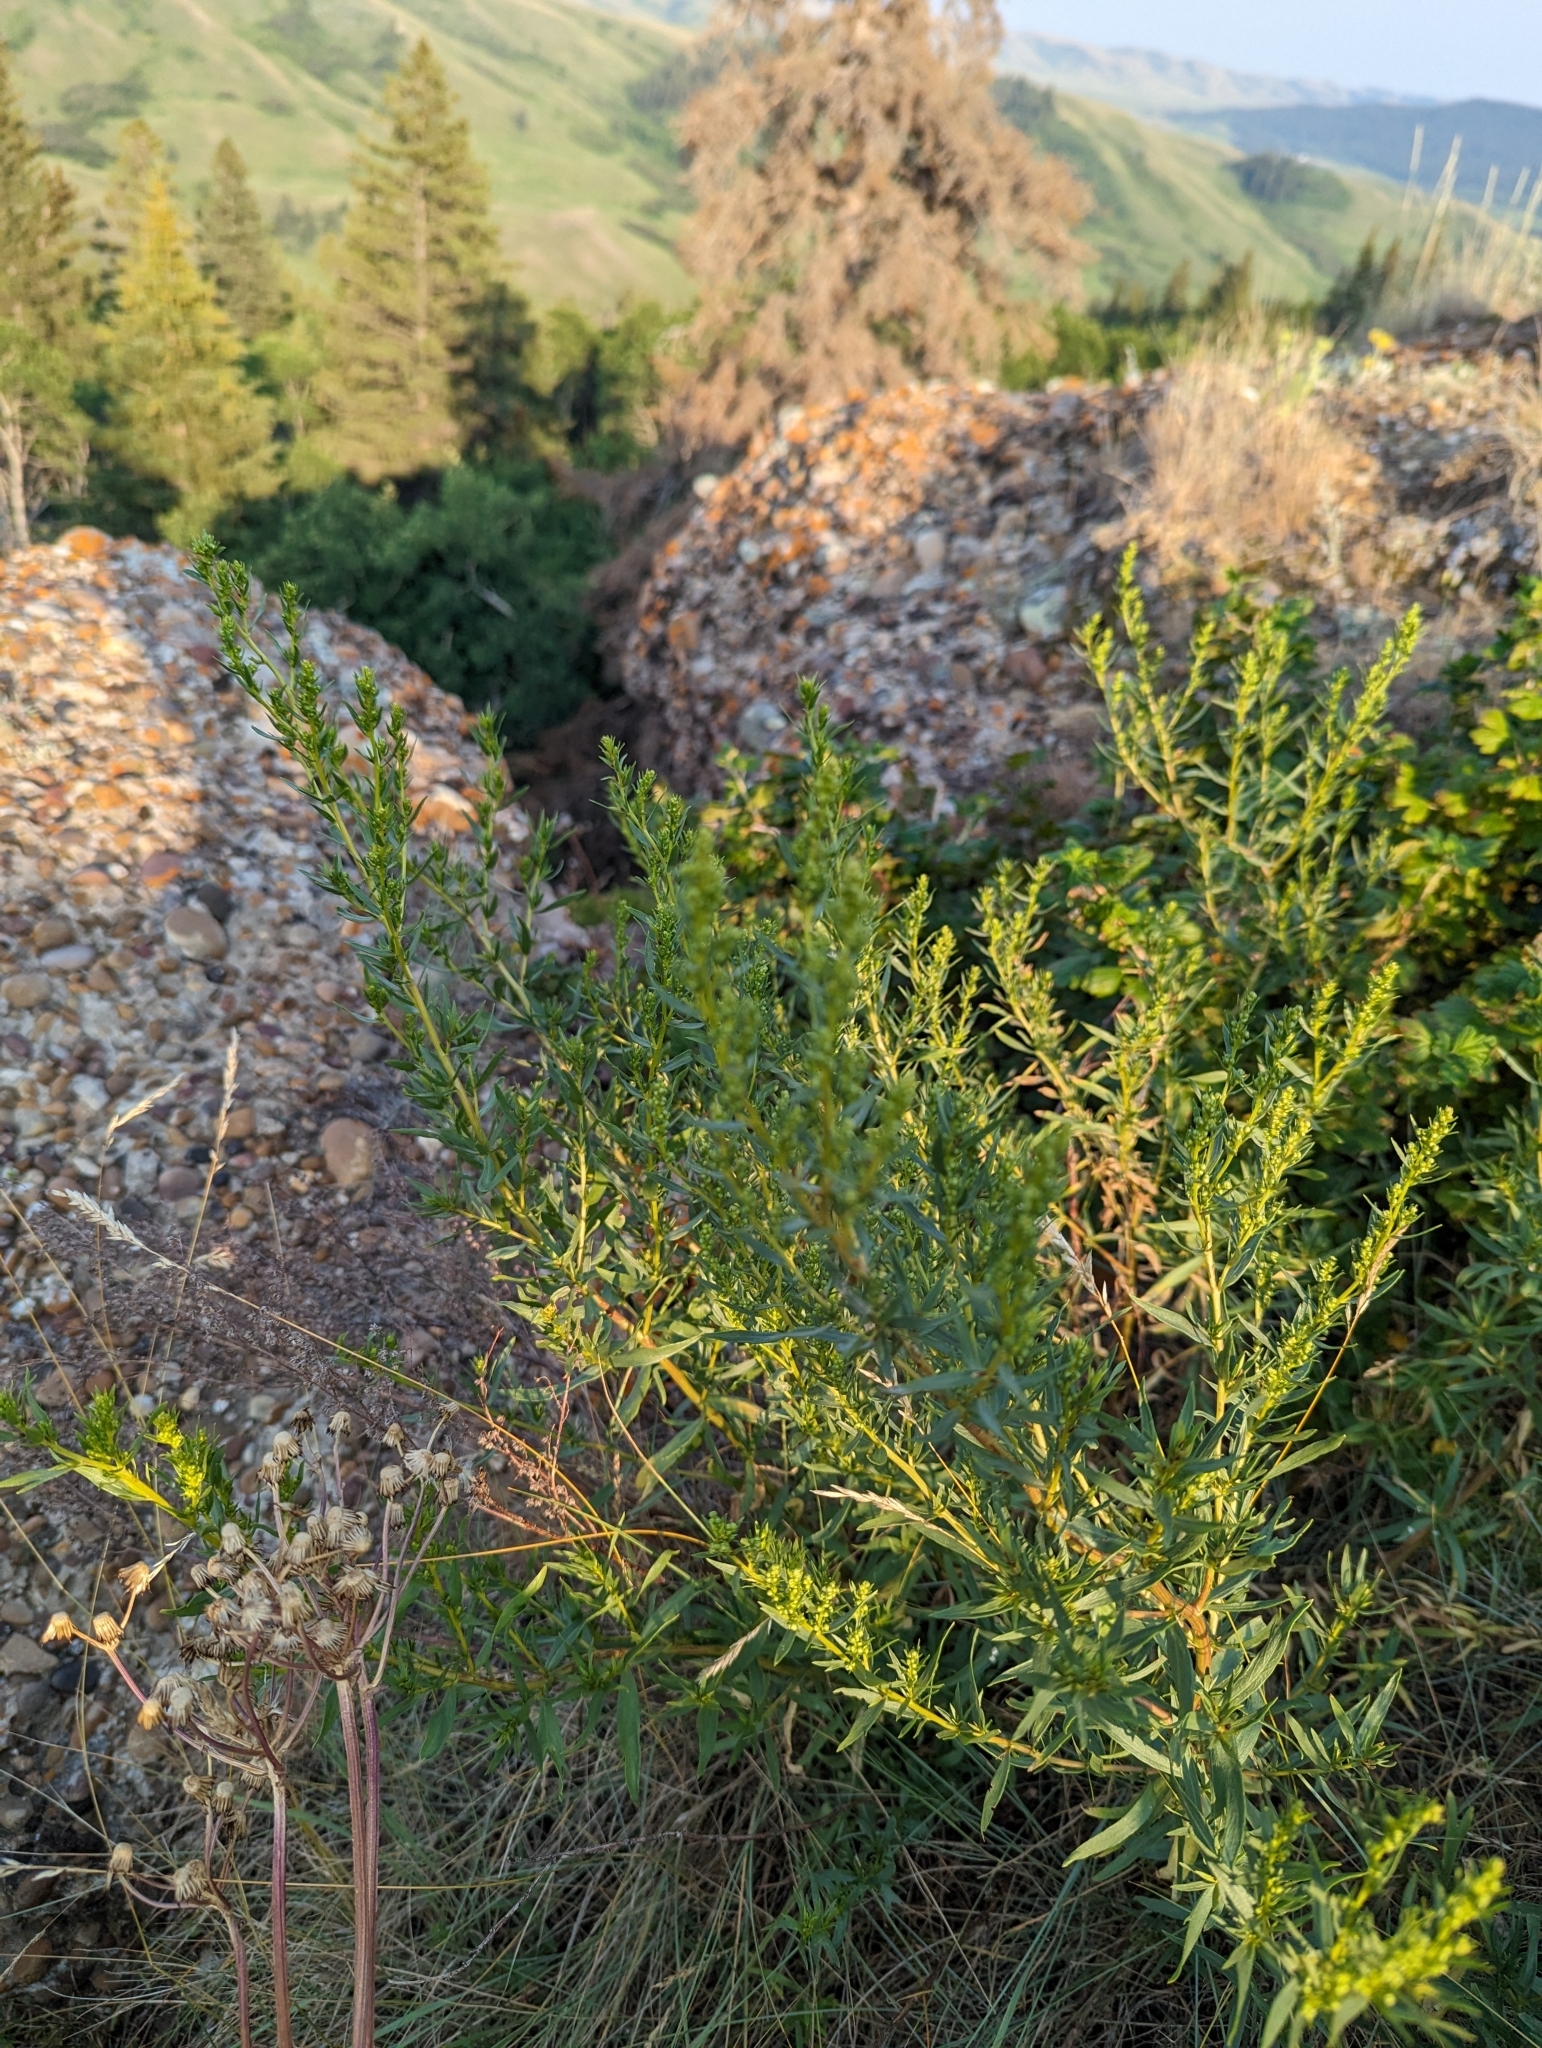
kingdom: Plantae
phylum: Tracheophyta
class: Magnoliopsida
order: Asterales
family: Asteraceae
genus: Artemisia
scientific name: Artemisia dracunculus
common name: Tarragon
